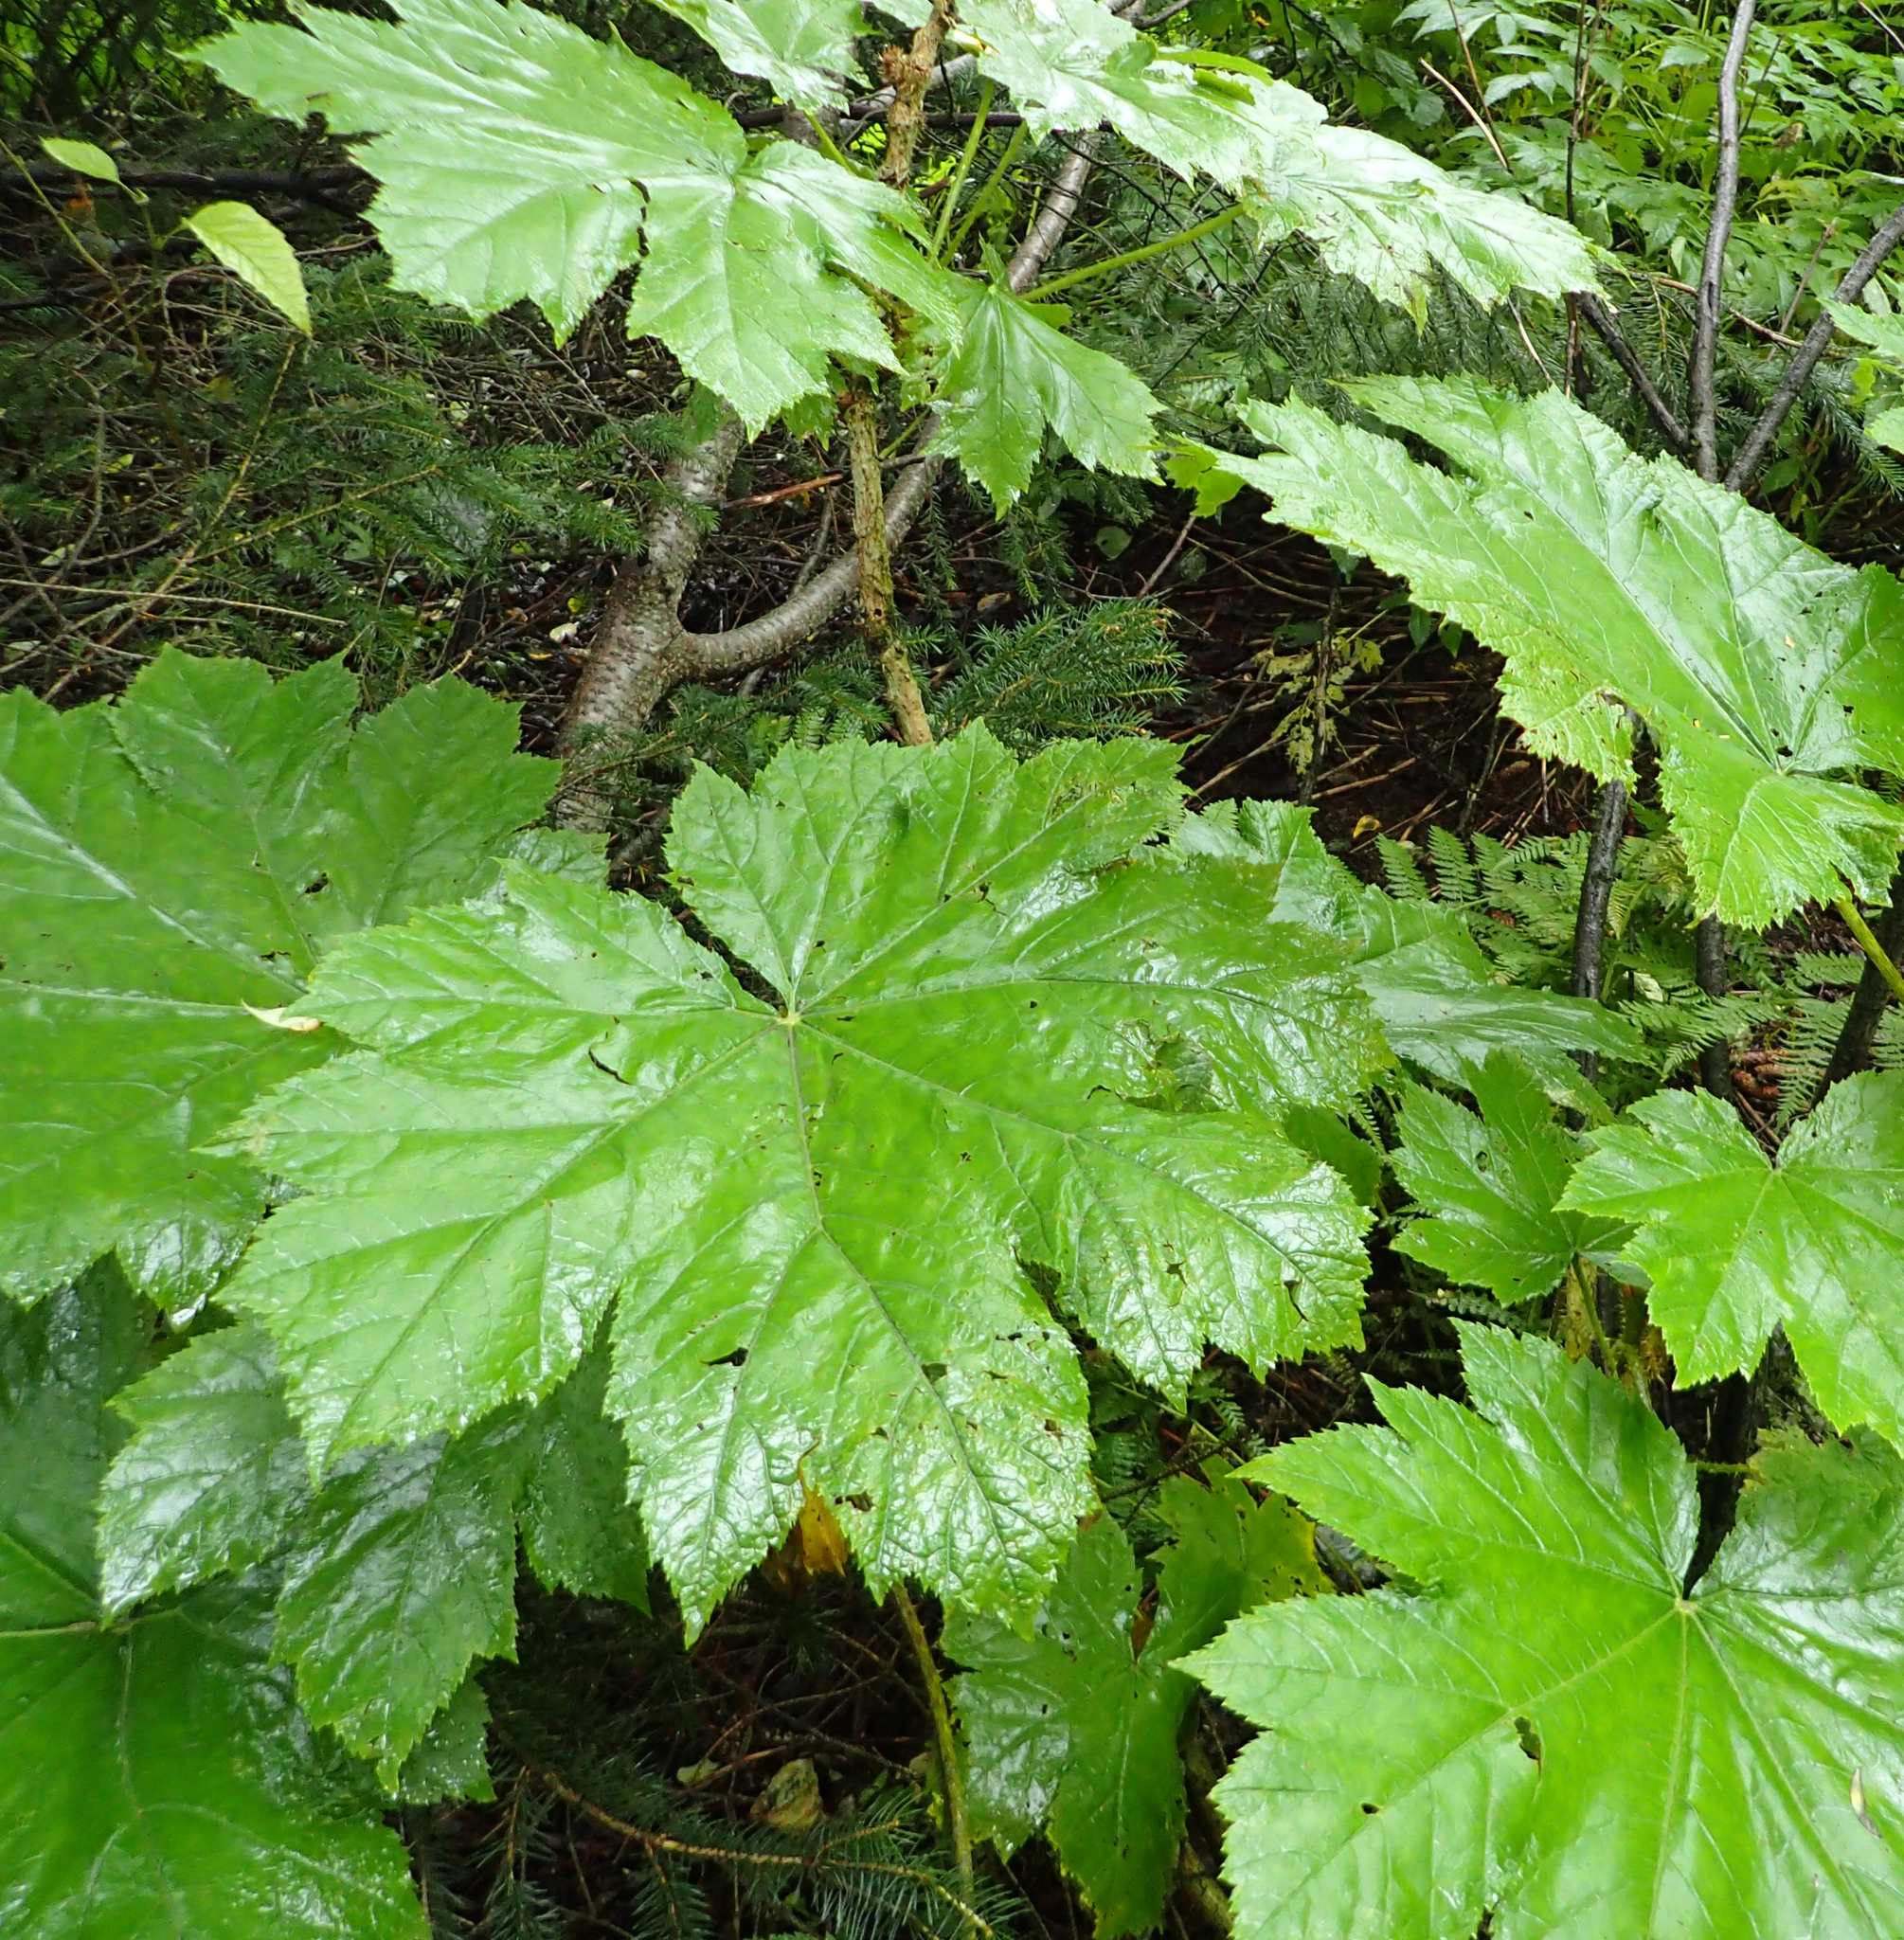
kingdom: Plantae
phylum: Tracheophyta
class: Magnoliopsida
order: Apiales
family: Araliaceae
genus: Oplopanax
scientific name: Oplopanax horridus
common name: Devil's walking-stick
